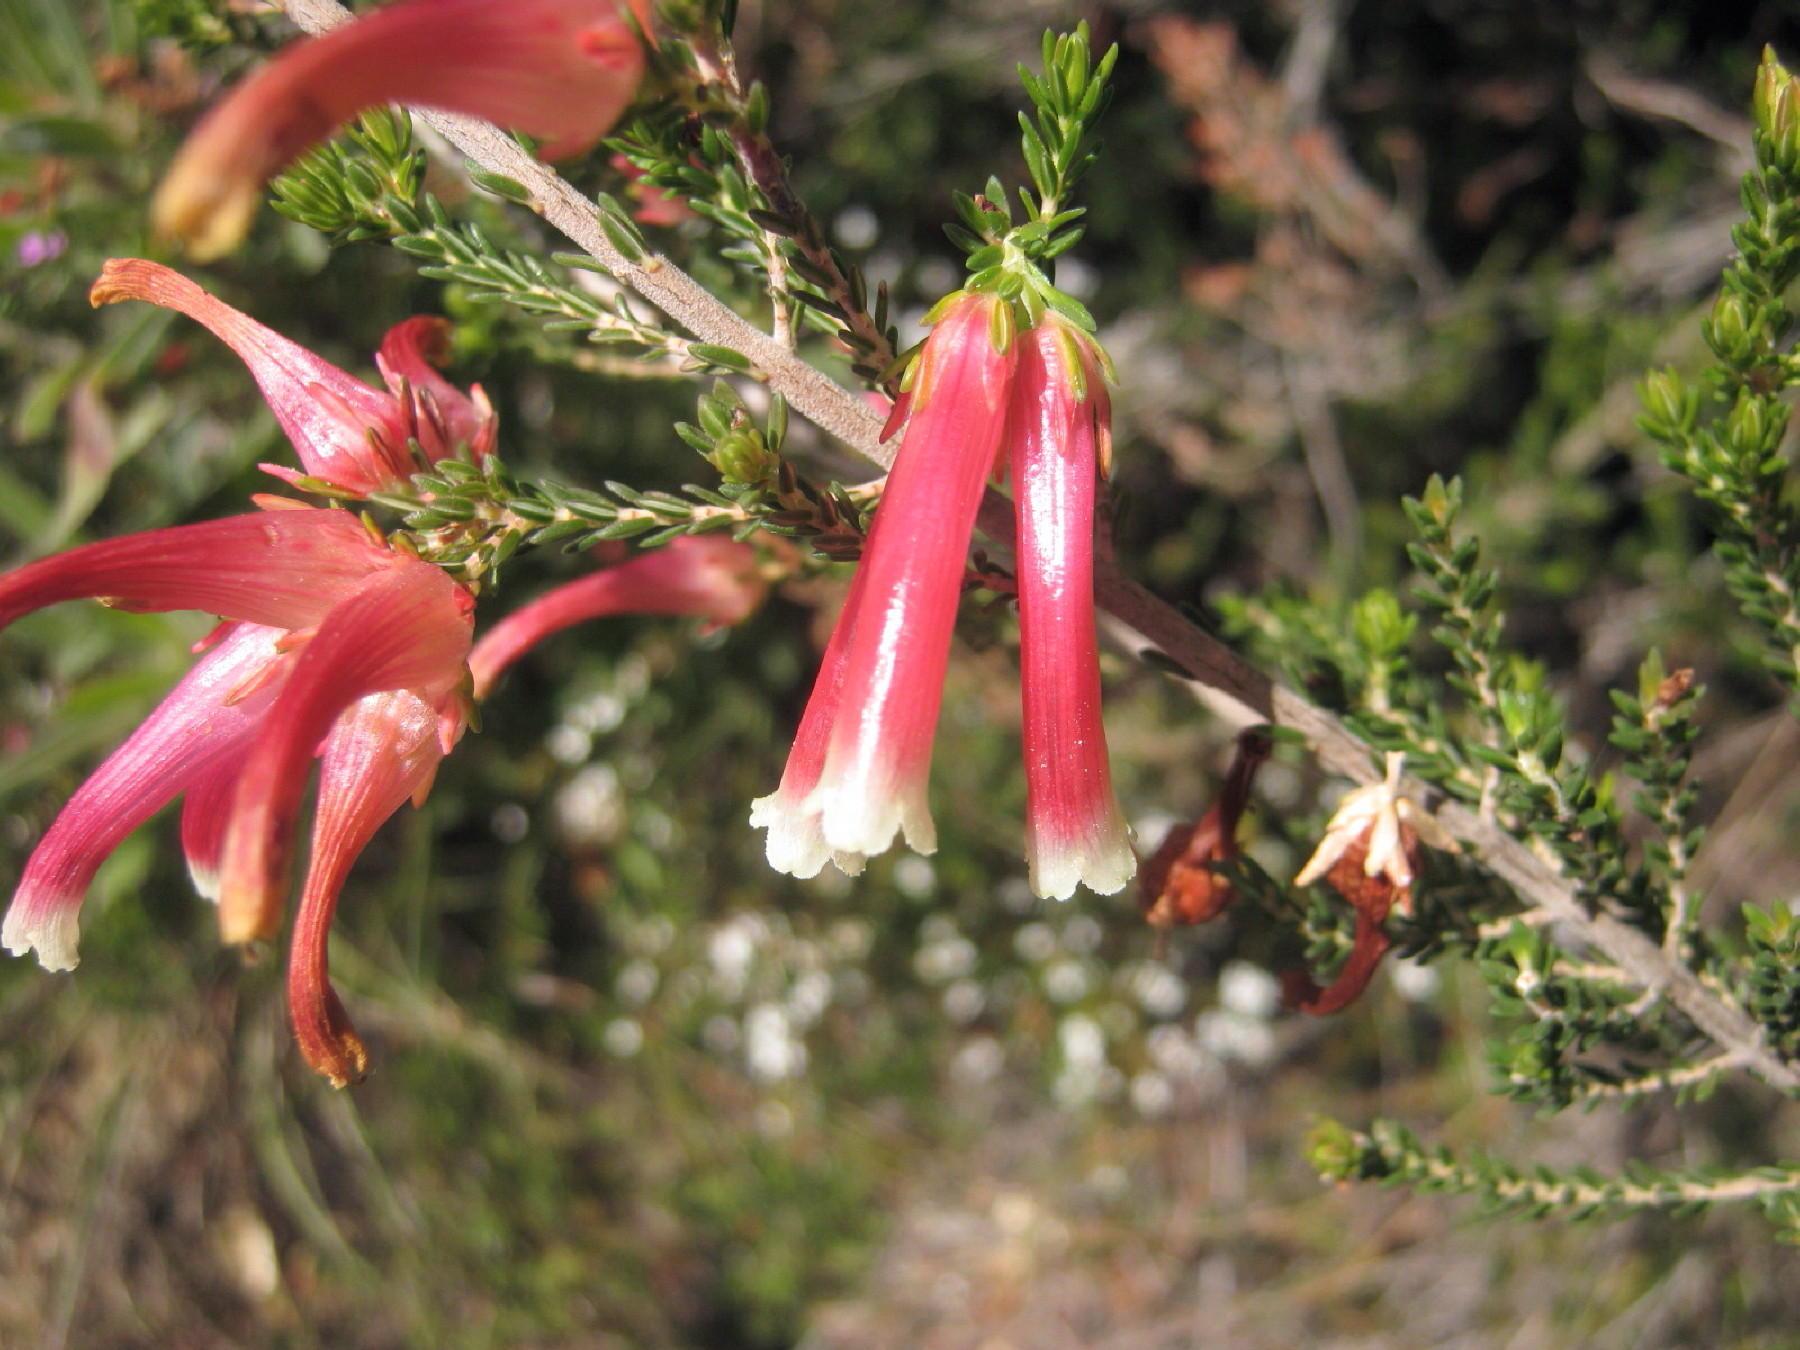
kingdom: Plantae
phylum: Tracheophyta
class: Magnoliopsida
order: Ericales
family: Ericaceae
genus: Erica
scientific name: Erica versicolor
